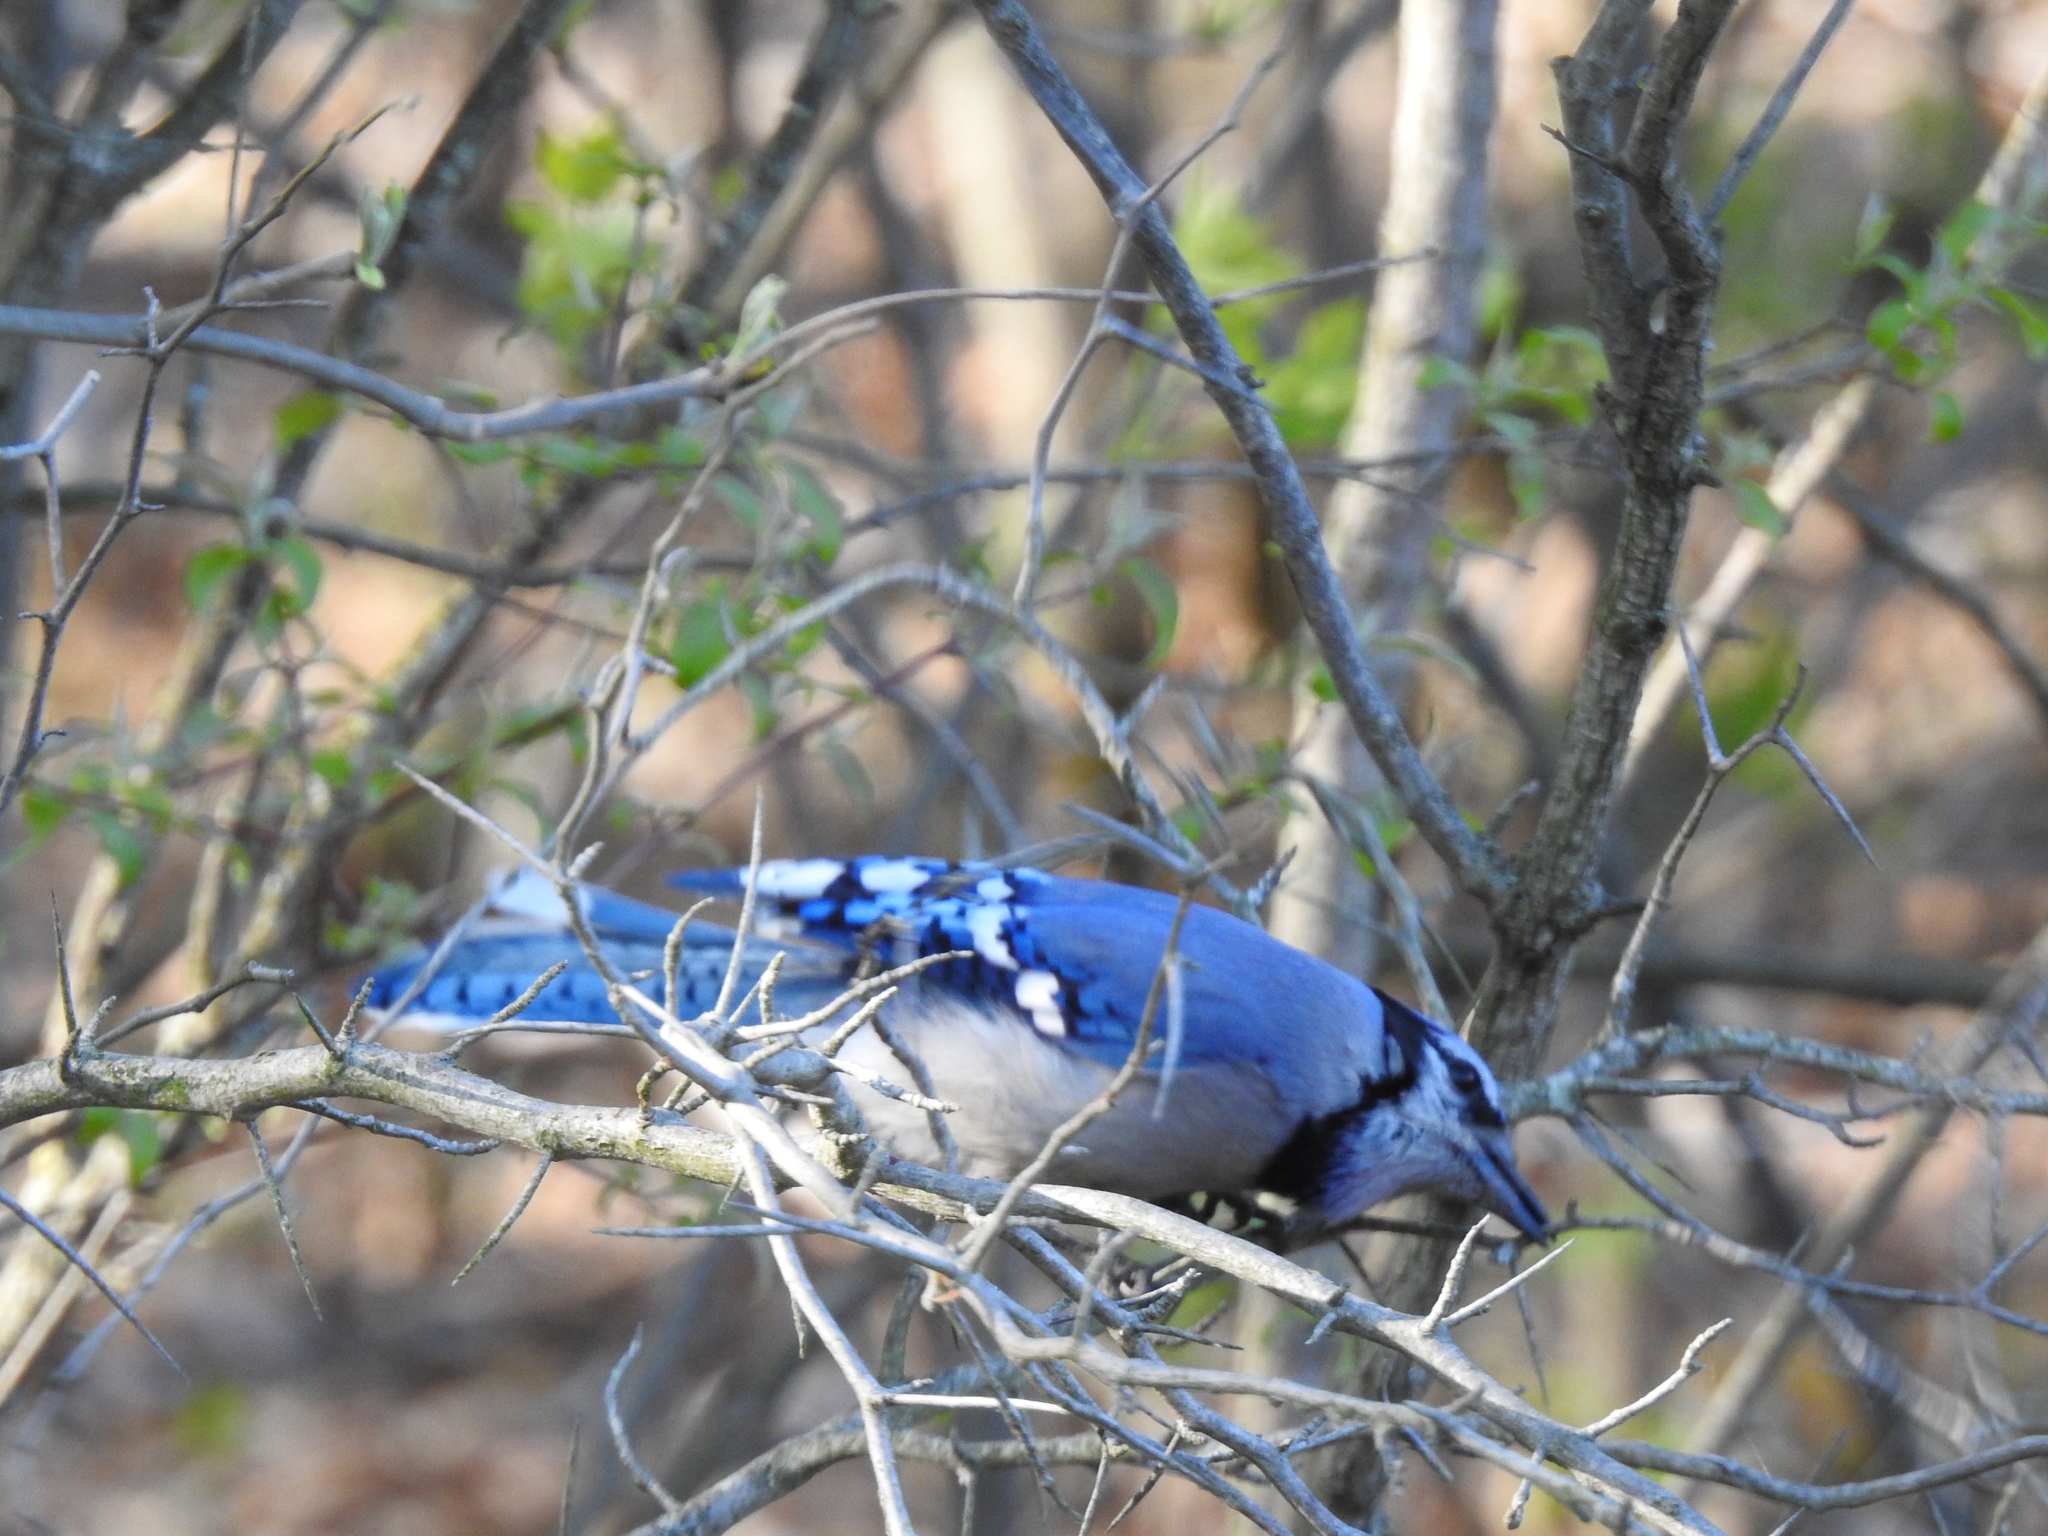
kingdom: Animalia
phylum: Chordata
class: Aves
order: Passeriformes
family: Corvidae
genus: Cyanocitta
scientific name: Cyanocitta cristata
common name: Blue jay
